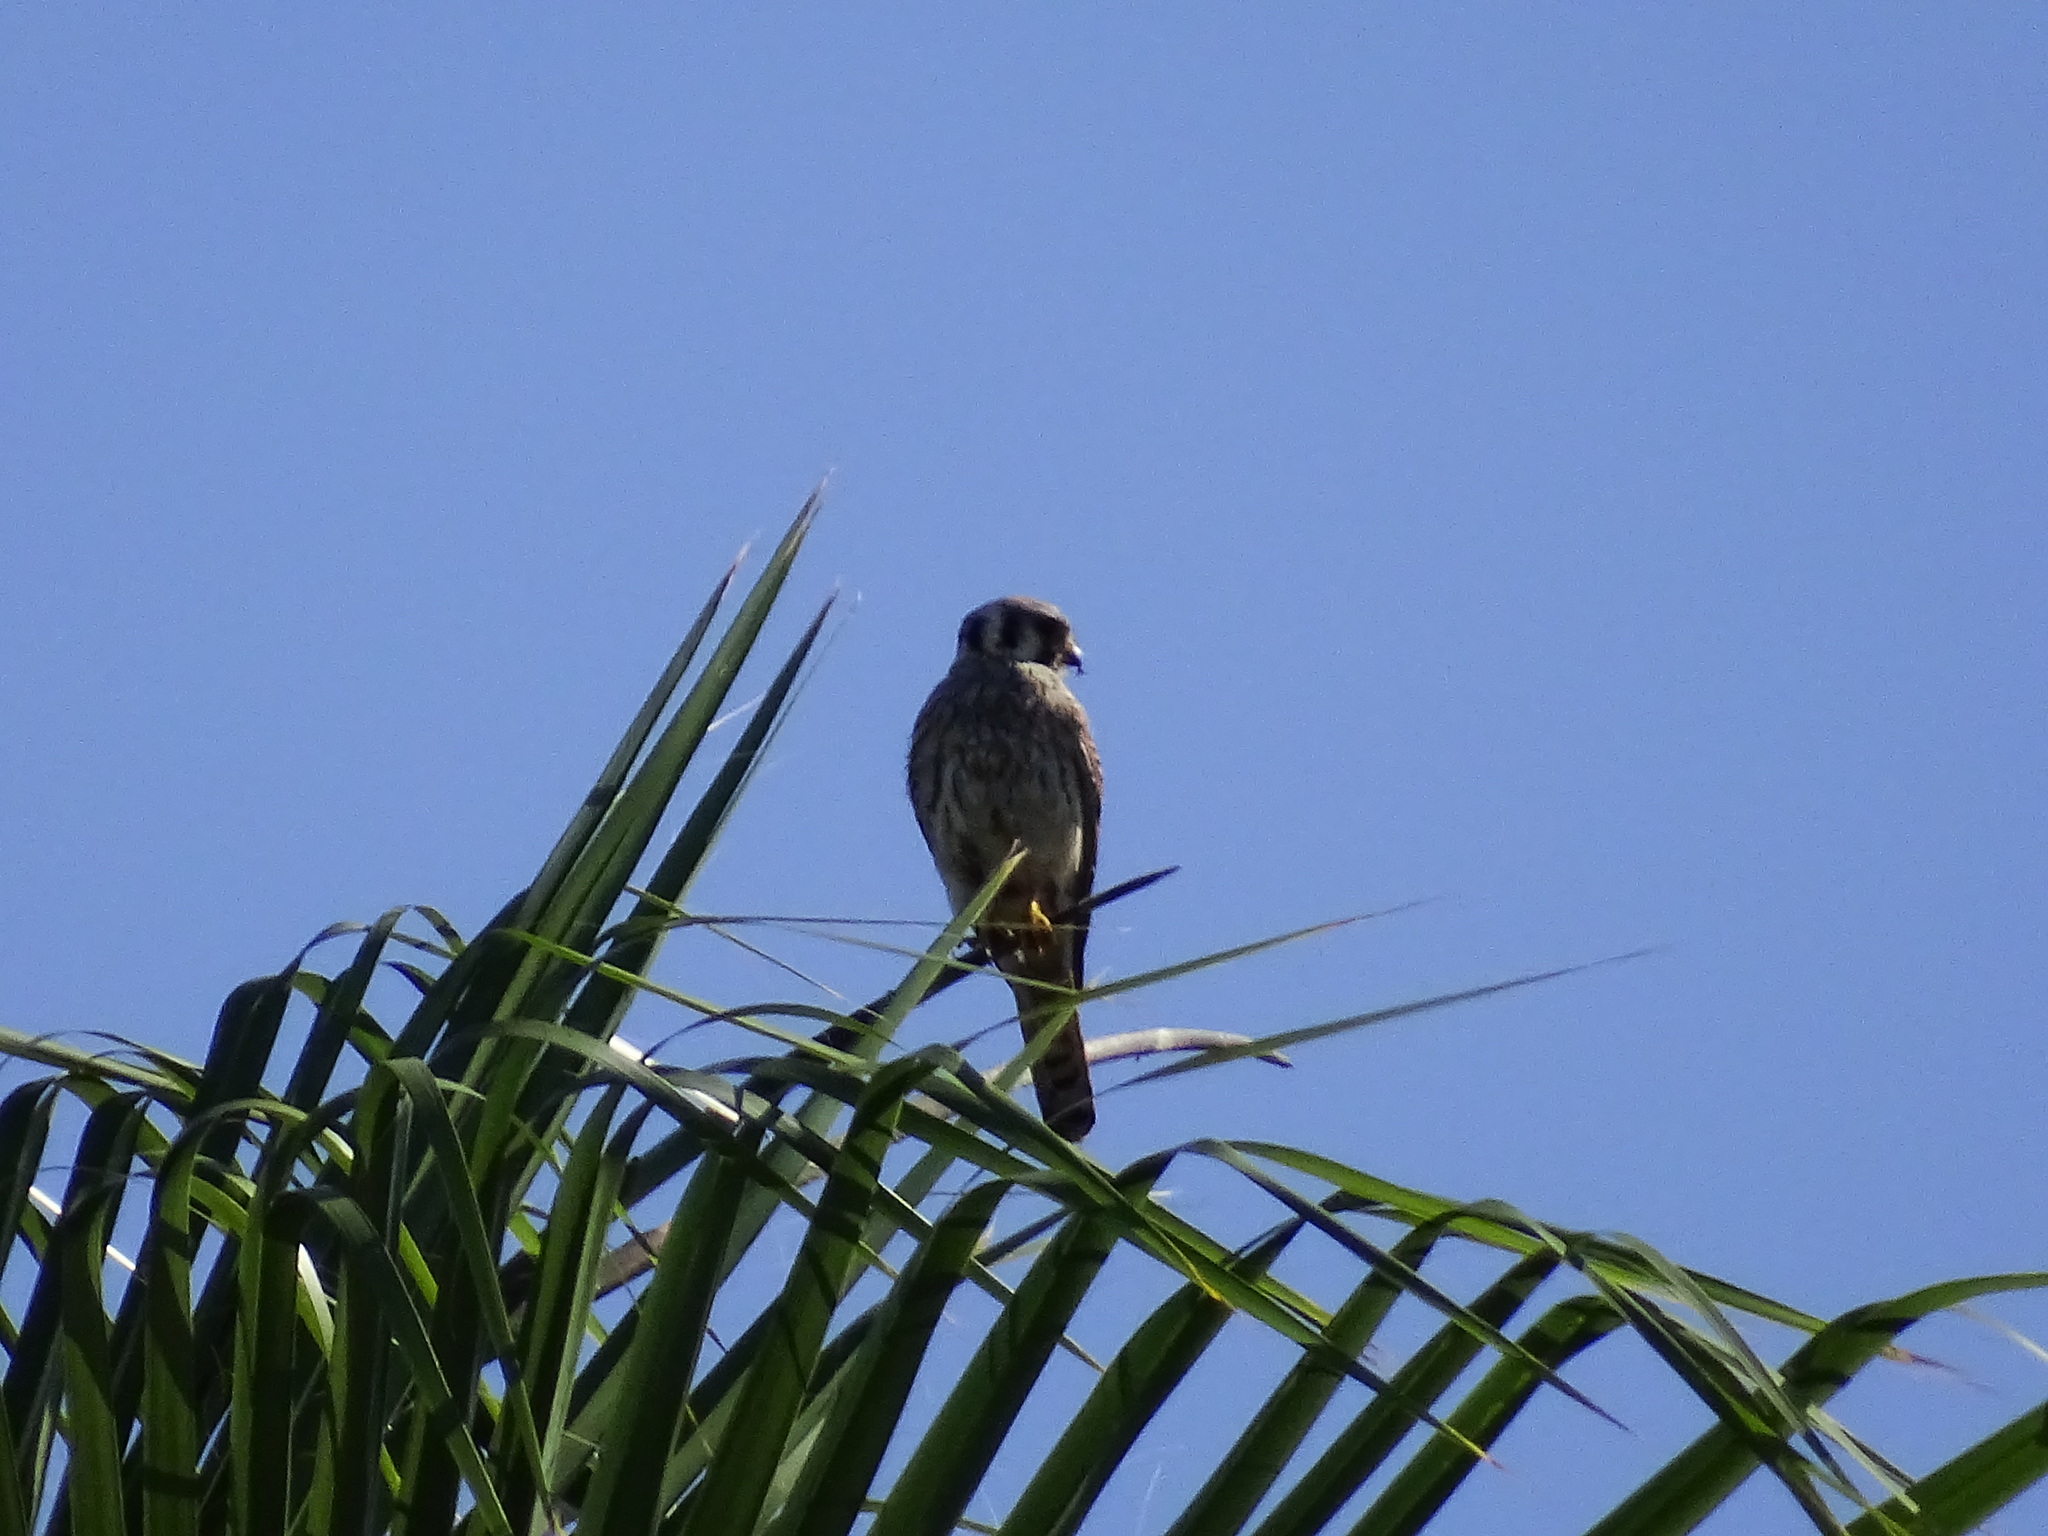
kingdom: Animalia
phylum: Chordata
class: Aves
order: Falconiformes
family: Falconidae
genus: Falco
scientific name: Falco sparverius
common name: American kestrel
